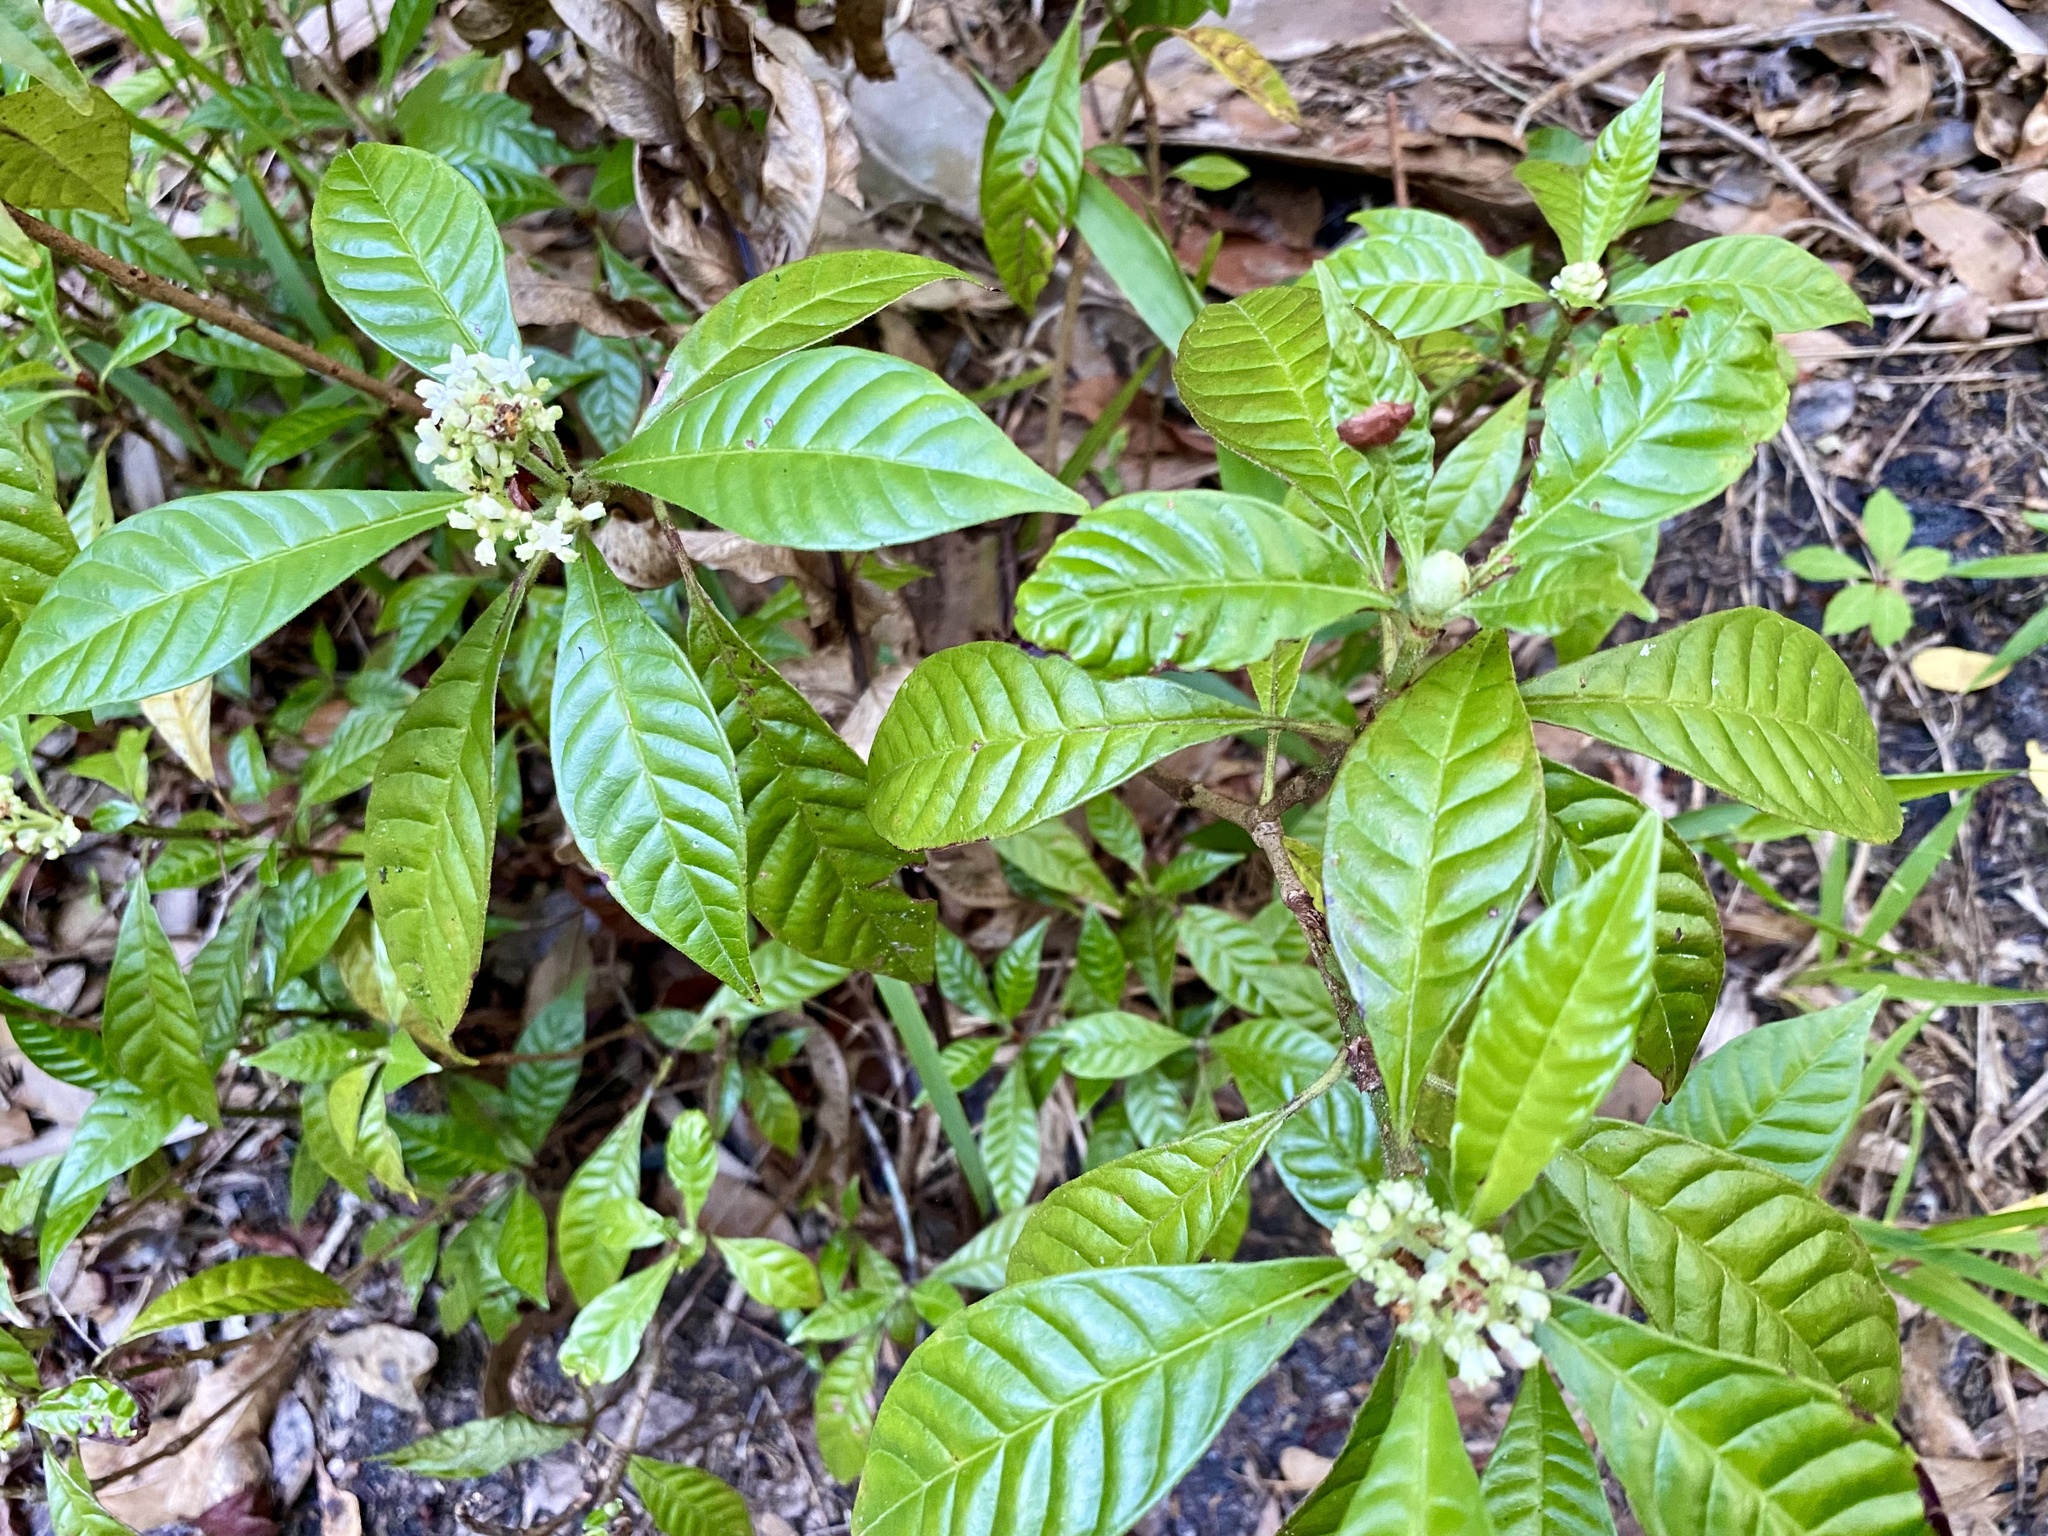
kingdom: Plantae
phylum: Tracheophyta
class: Magnoliopsida
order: Gentianales
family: Rubiaceae
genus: Psychotria
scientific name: Psychotria nervosa
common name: Bastard cankerberry
